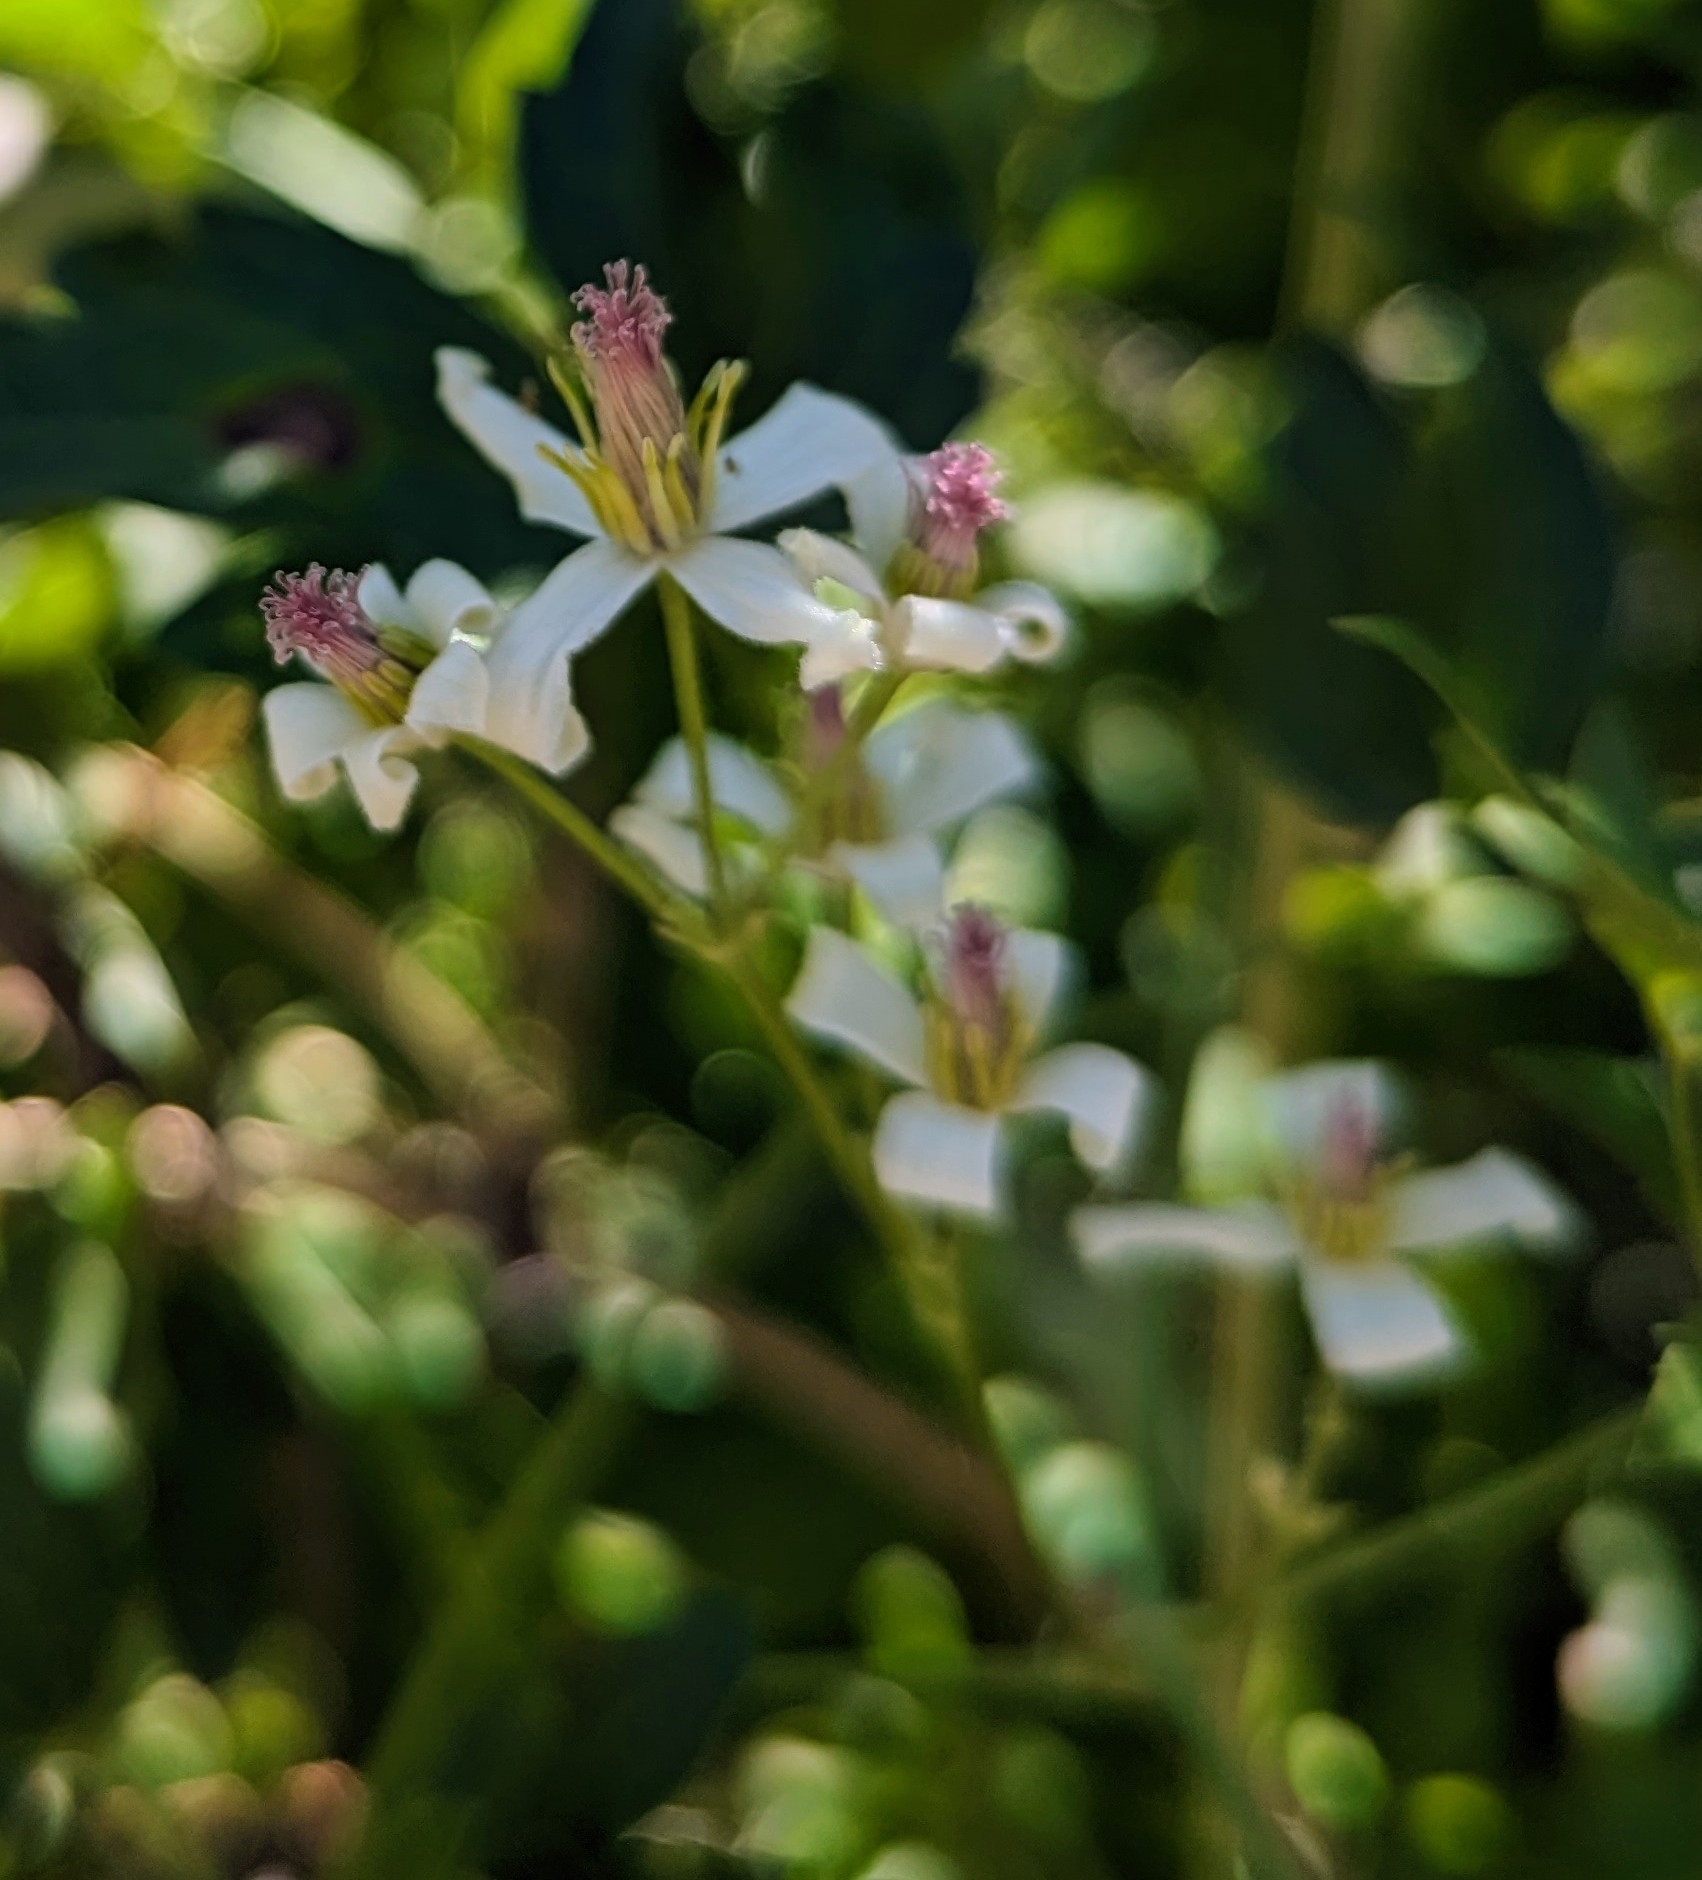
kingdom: Plantae
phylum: Tracheophyta
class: Magnoliopsida
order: Ranunculales
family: Ranunculaceae
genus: Clematis
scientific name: Clematis ligusticifolia
